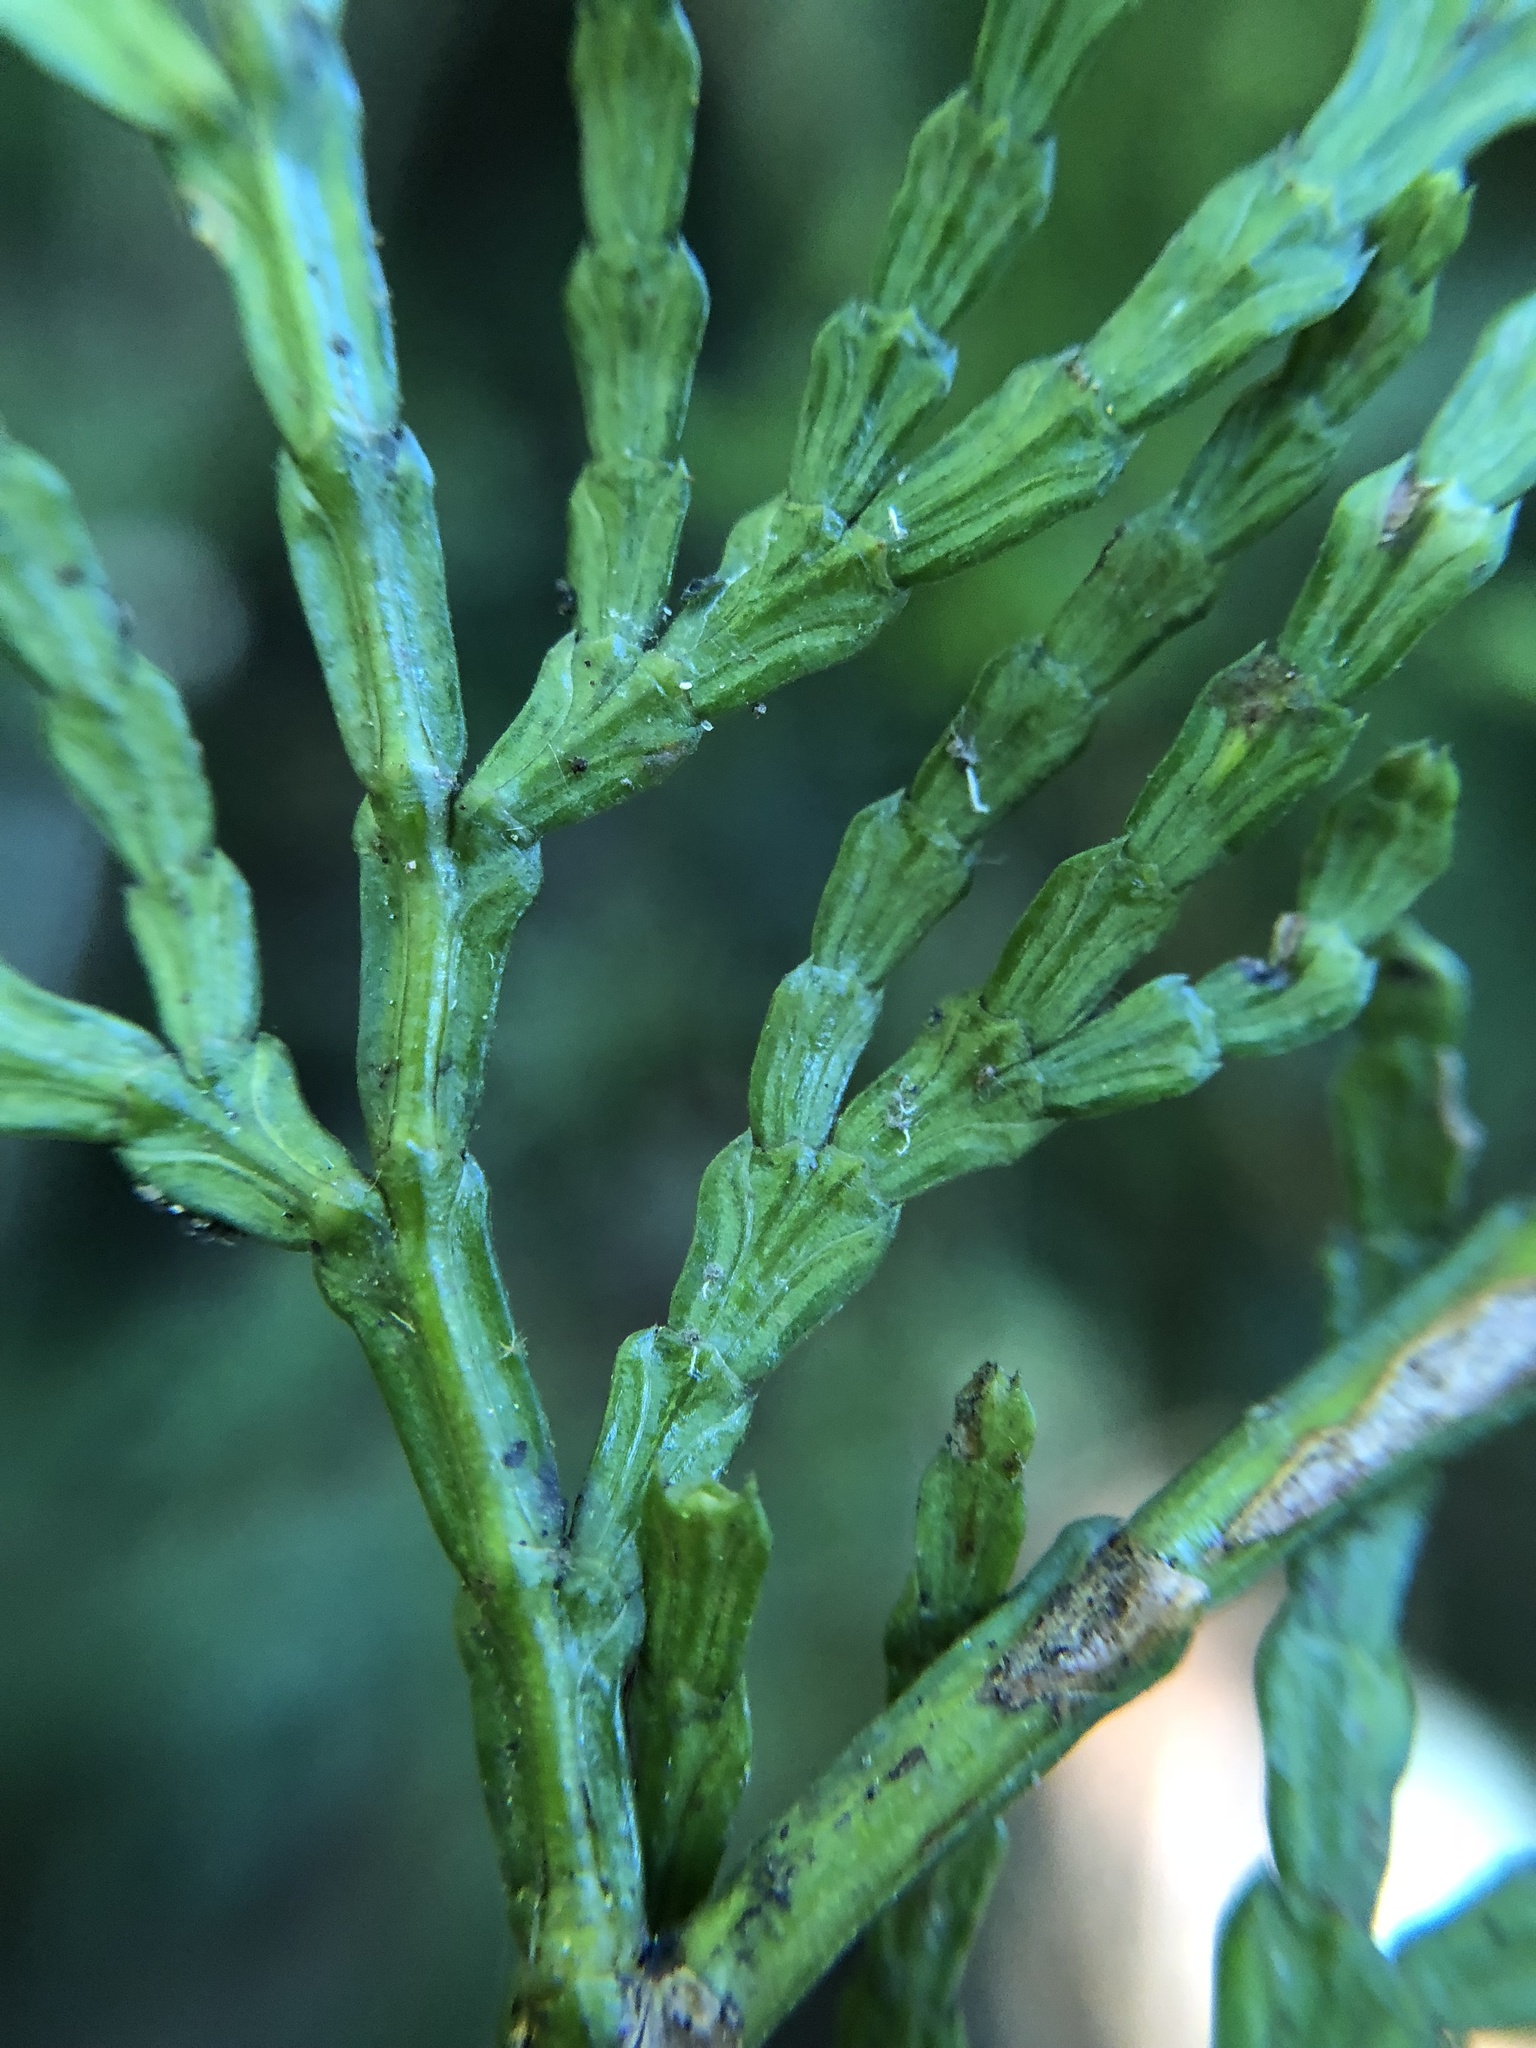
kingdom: Plantae
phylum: Tracheophyta
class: Pinopsida
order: Pinales
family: Cupressaceae
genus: Calocedrus
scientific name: Calocedrus formosana
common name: Taiwan incense-cedar
